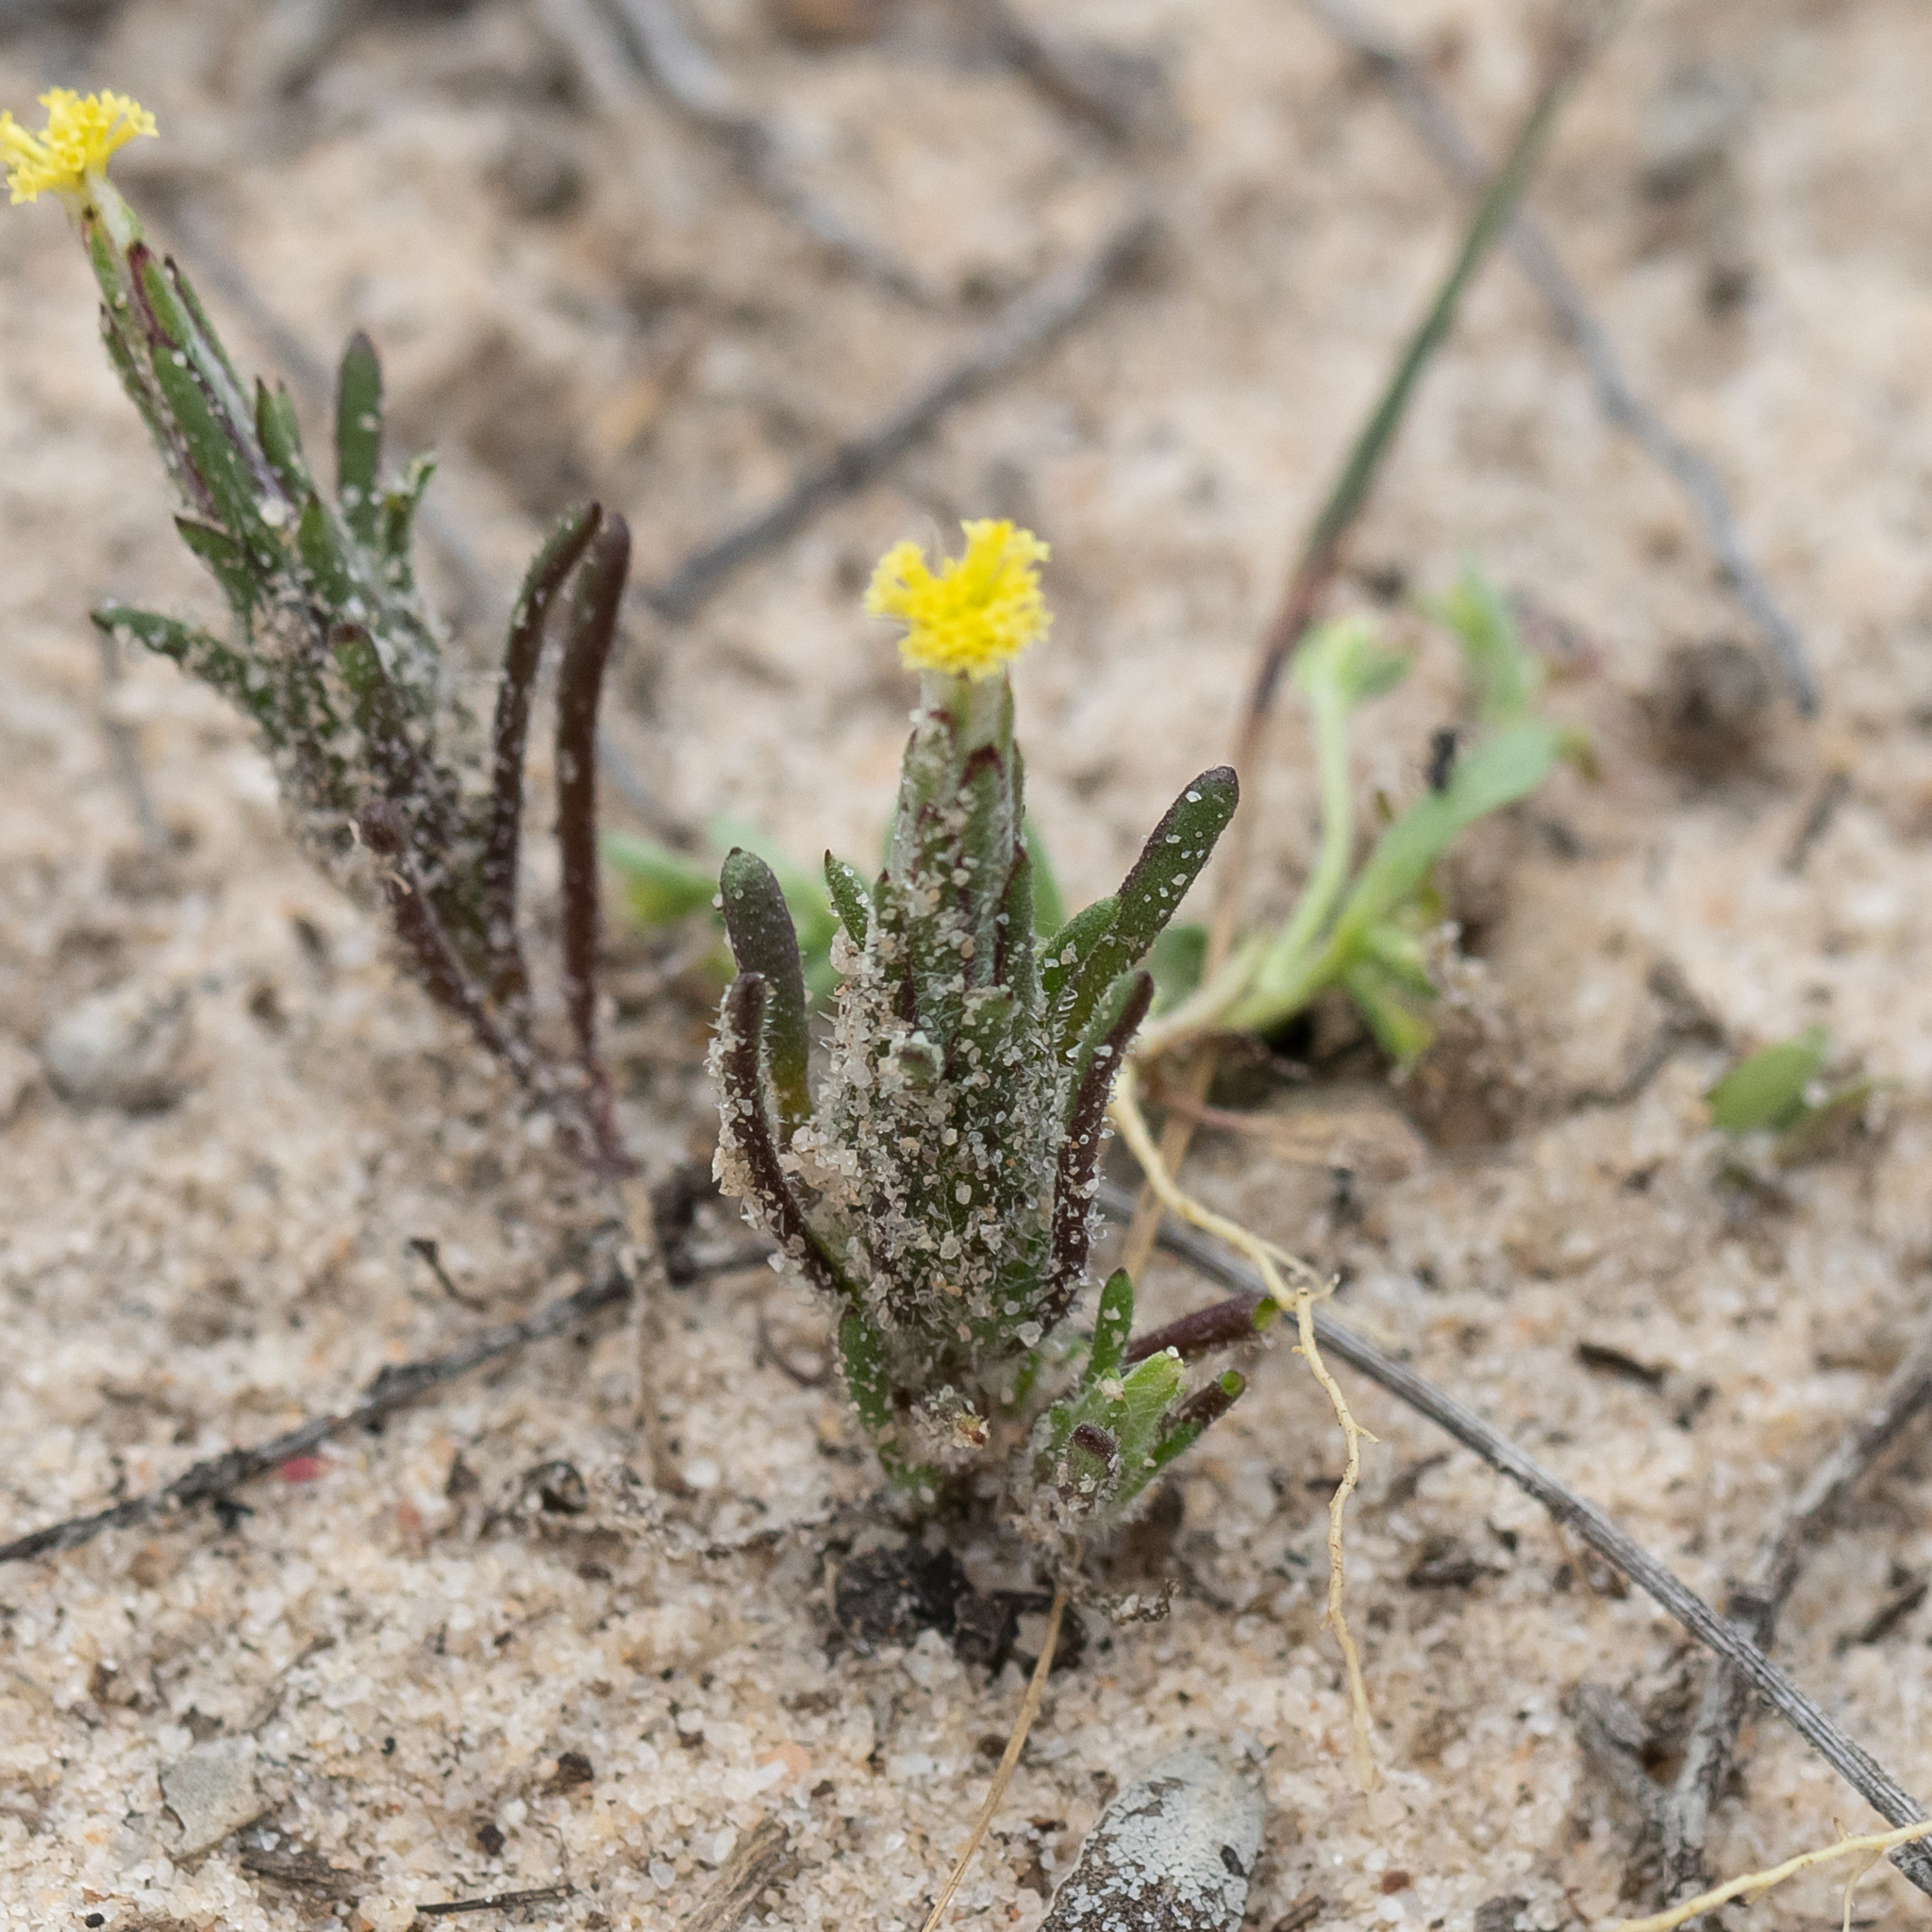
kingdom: Plantae
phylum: Tracheophyta
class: Magnoliopsida
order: Asterales
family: Asteraceae
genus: Podotheca
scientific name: Podotheca angustifolia
